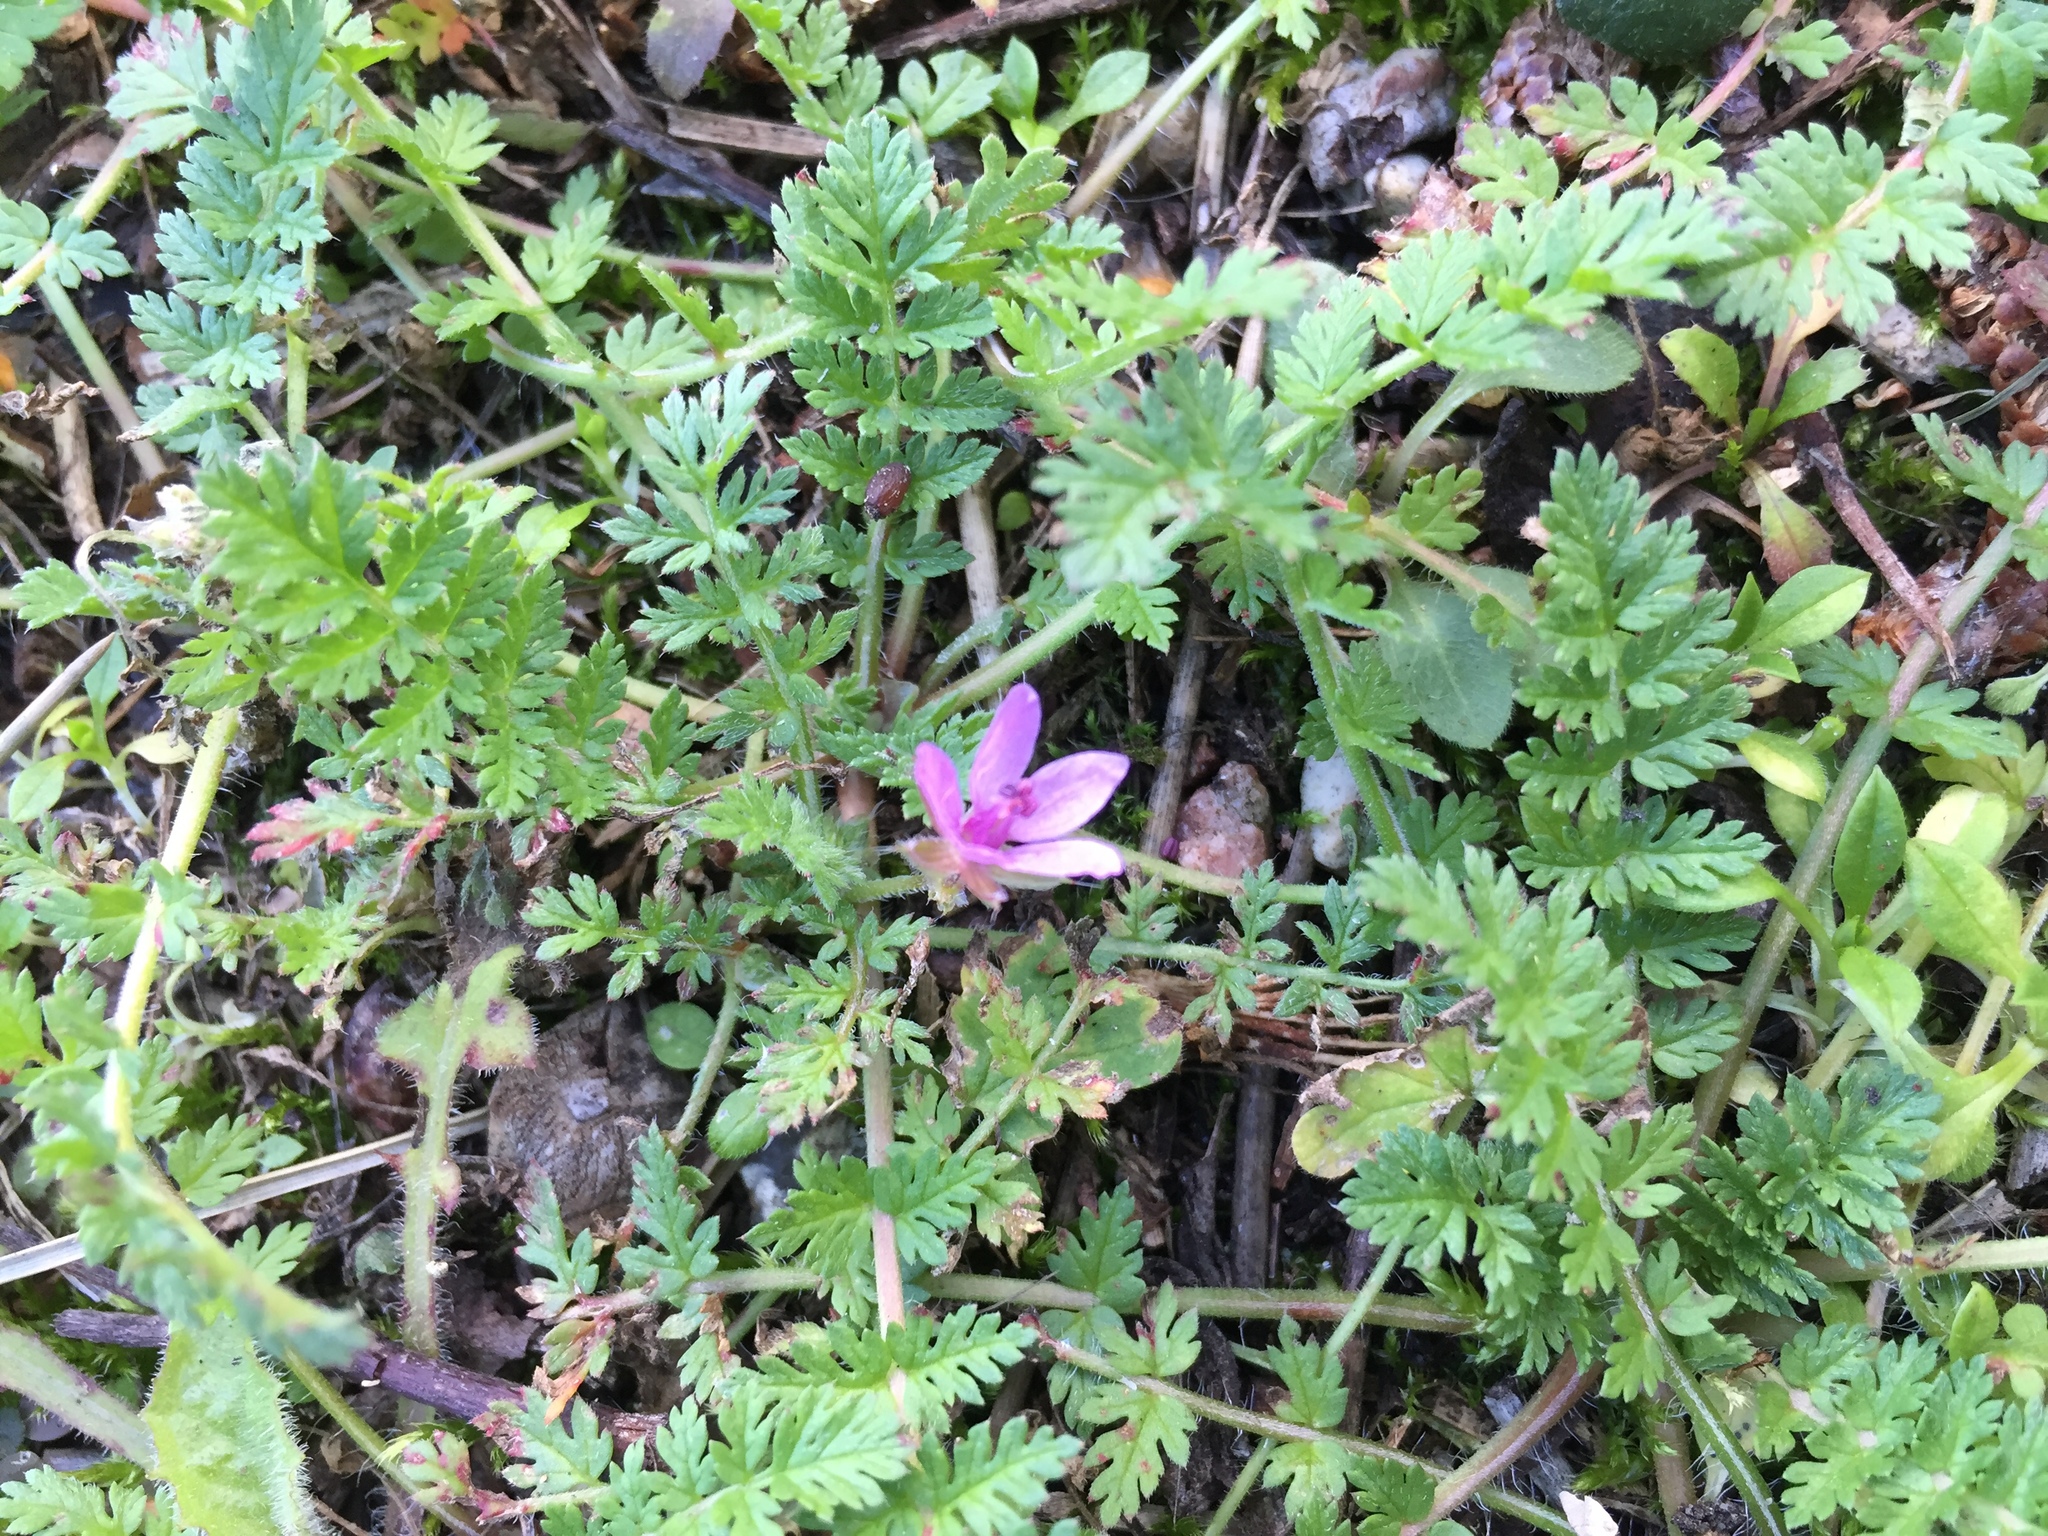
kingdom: Plantae
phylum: Tracheophyta
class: Magnoliopsida
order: Geraniales
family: Geraniaceae
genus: Erodium
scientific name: Erodium cicutarium
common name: Common stork's-bill
